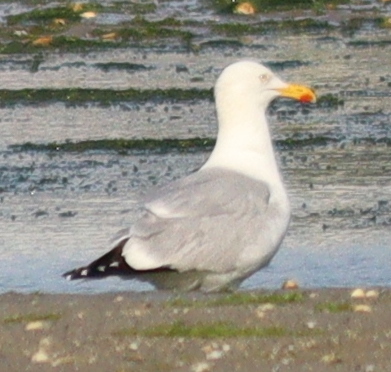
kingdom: Animalia
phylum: Chordata
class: Aves
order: Charadriiformes
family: Laridae
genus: Larus
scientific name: Larus argentatus
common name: Herring gull
